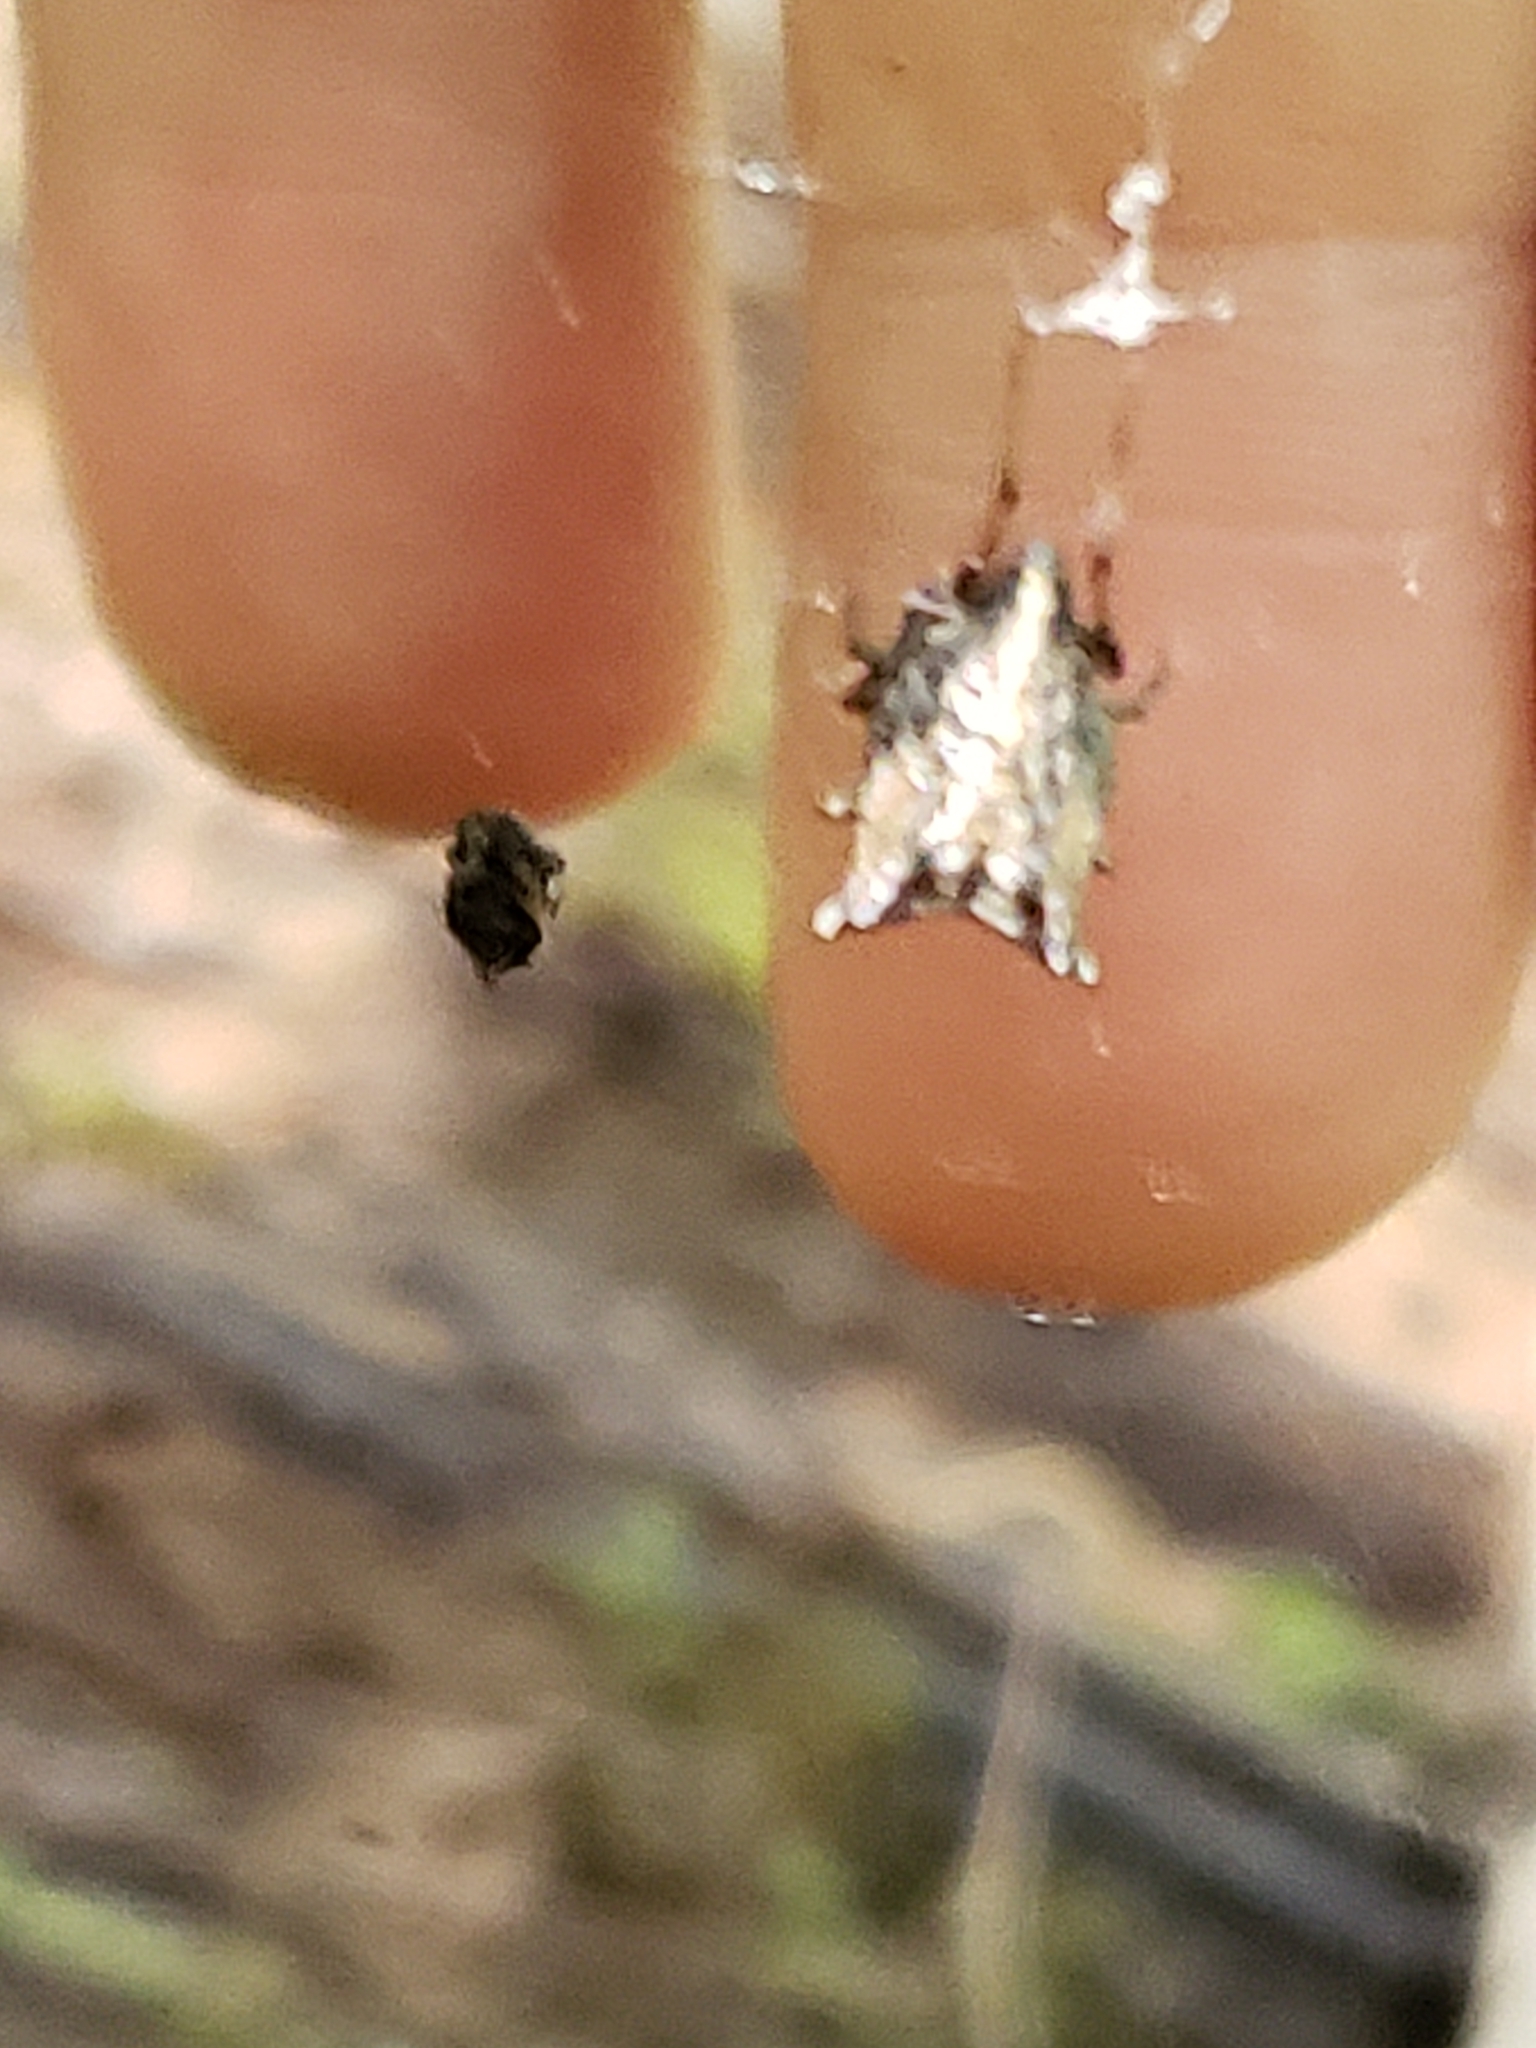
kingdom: Animalia
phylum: Arthropoda
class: Arachnida
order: Araneae
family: Araneidae
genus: Micrathena
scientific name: Micrathena gracilis
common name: Orb weavers
